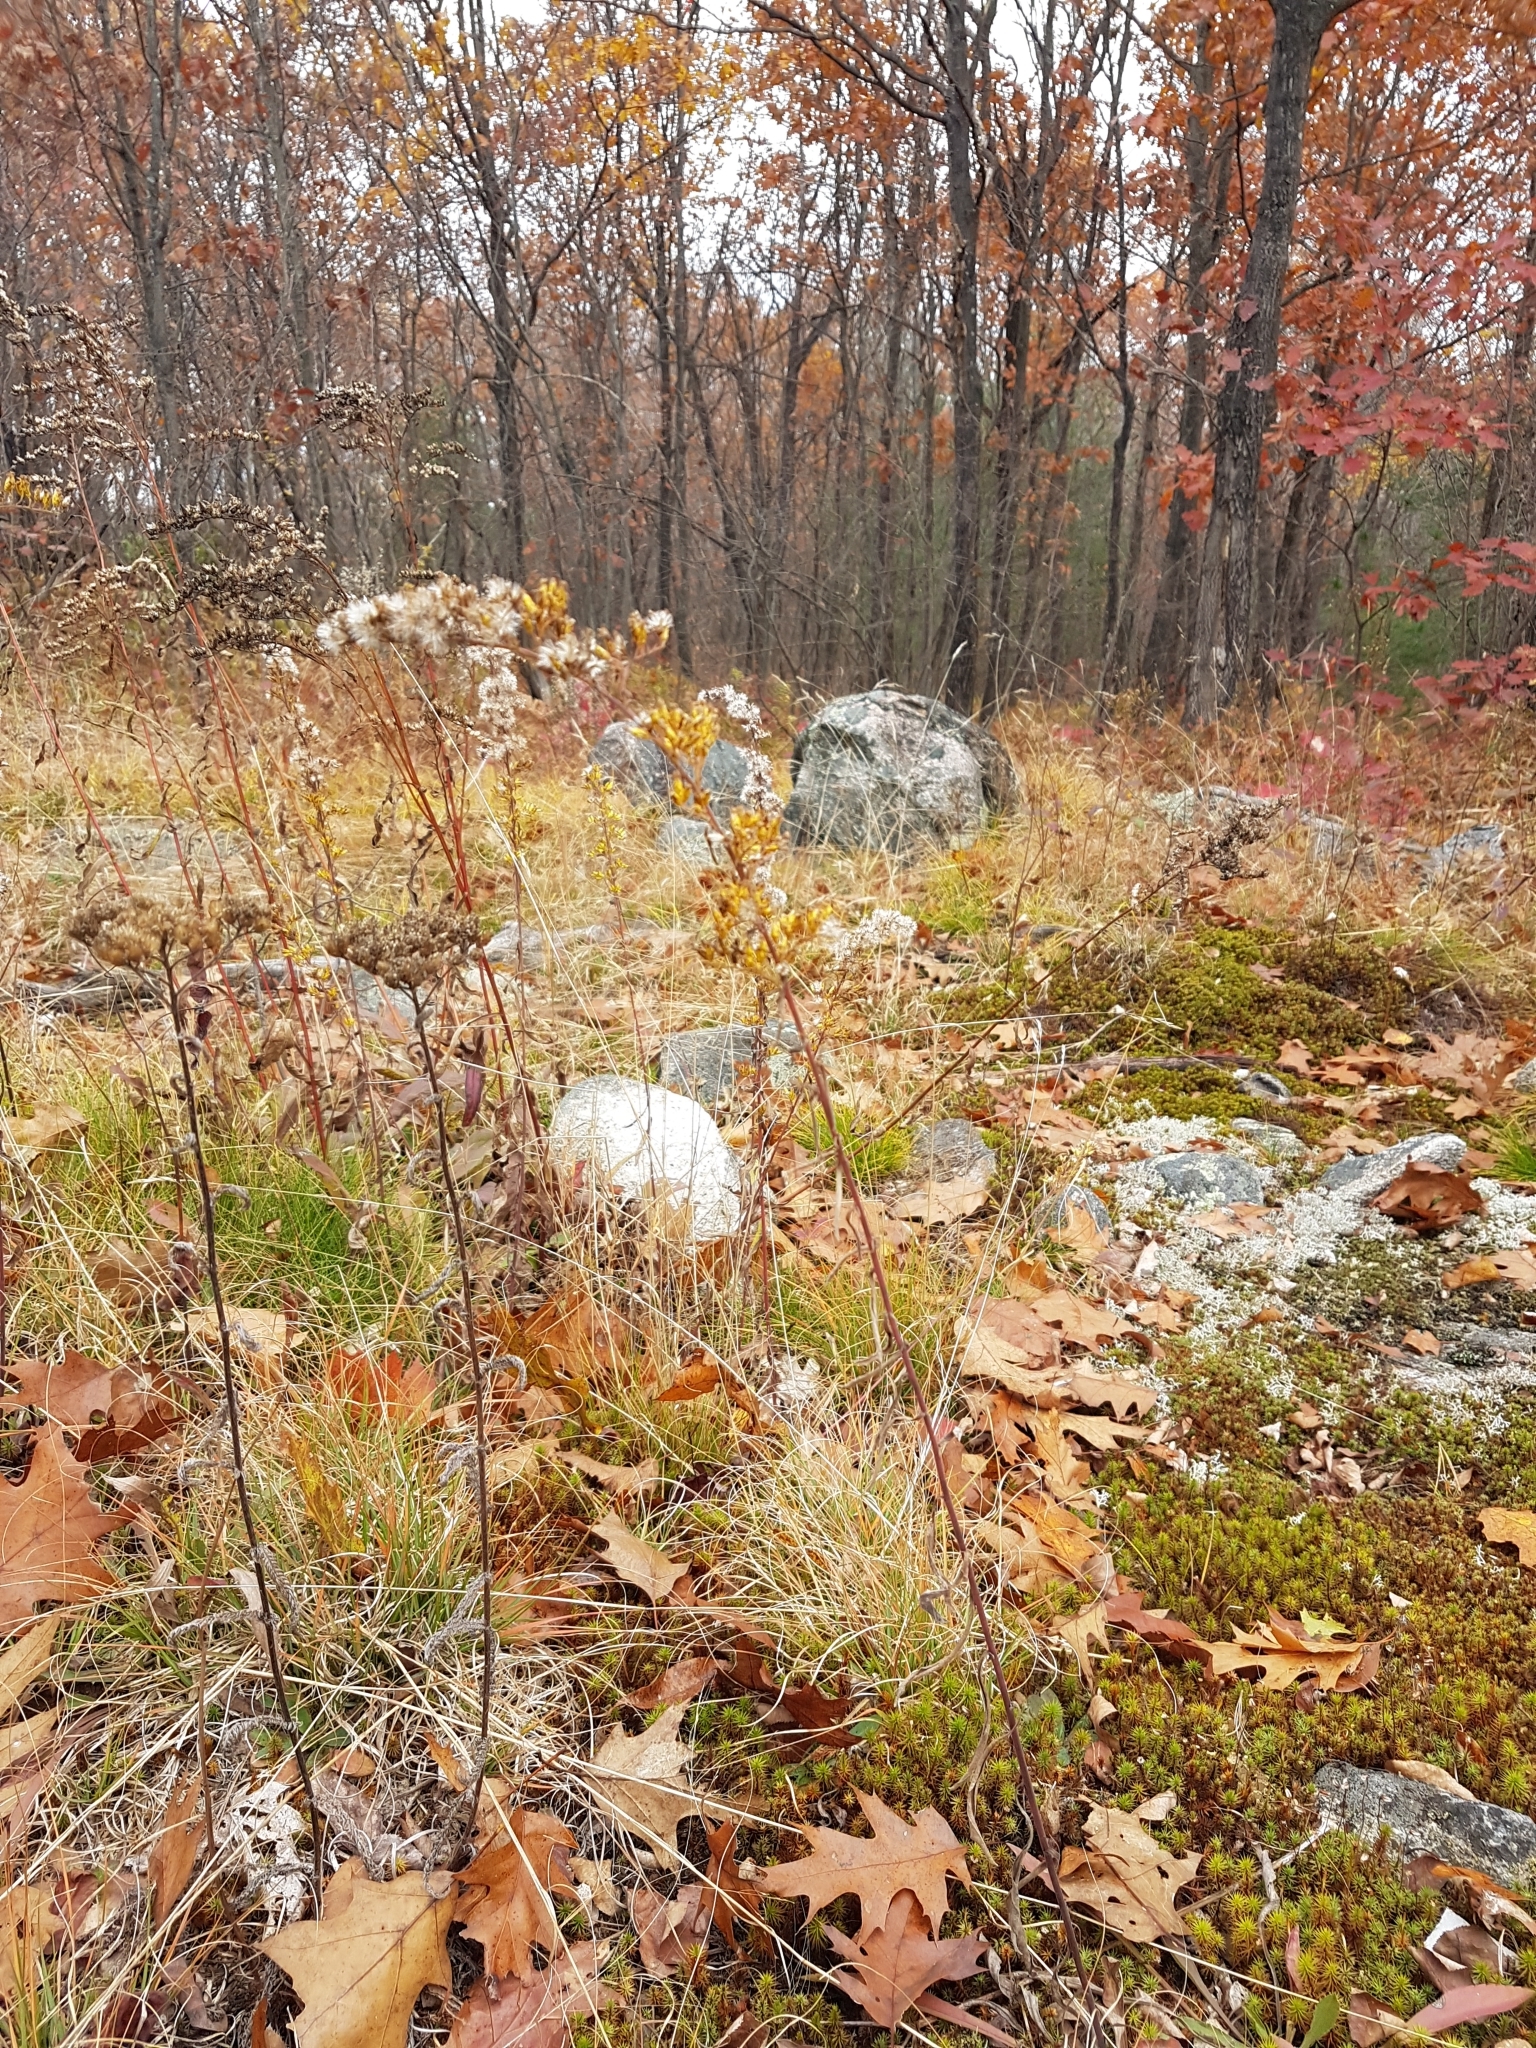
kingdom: Plantae
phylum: Tracheophyta
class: Magnoliopsida
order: Asterales
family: Asteraceae
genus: Solidago
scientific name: Solidago nemoralis
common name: Grey goldenrod
